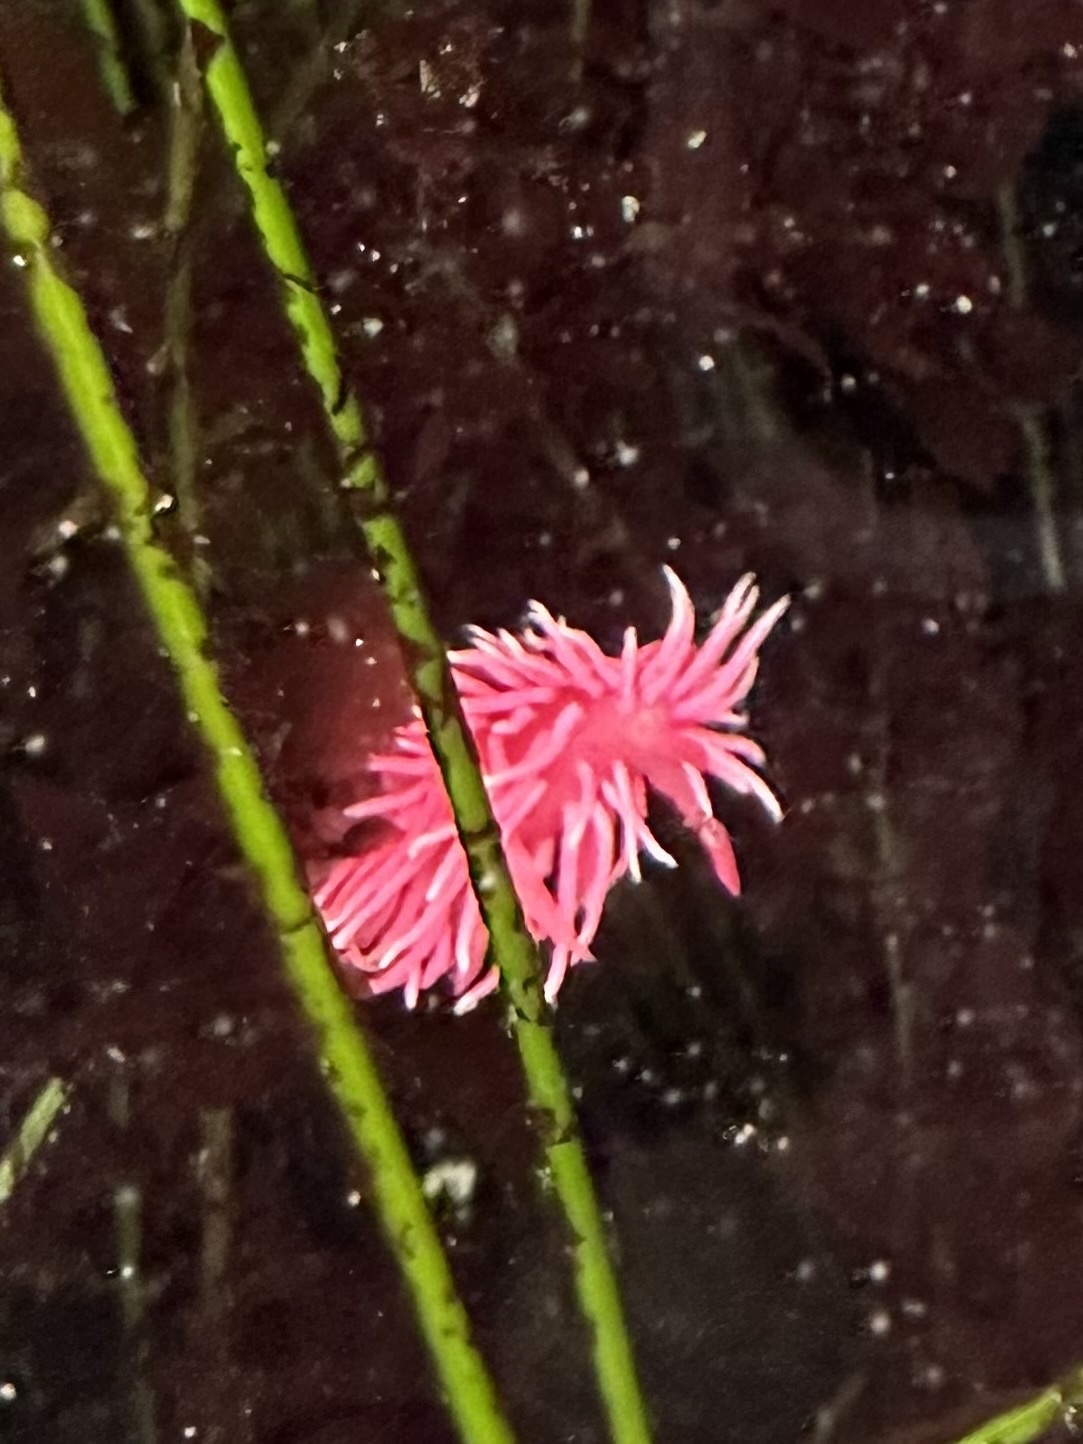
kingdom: Animalia
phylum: Mollusca
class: Gastropoda
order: Nudibranchia
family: Goniodorididae
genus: Okenia
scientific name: Okenia
